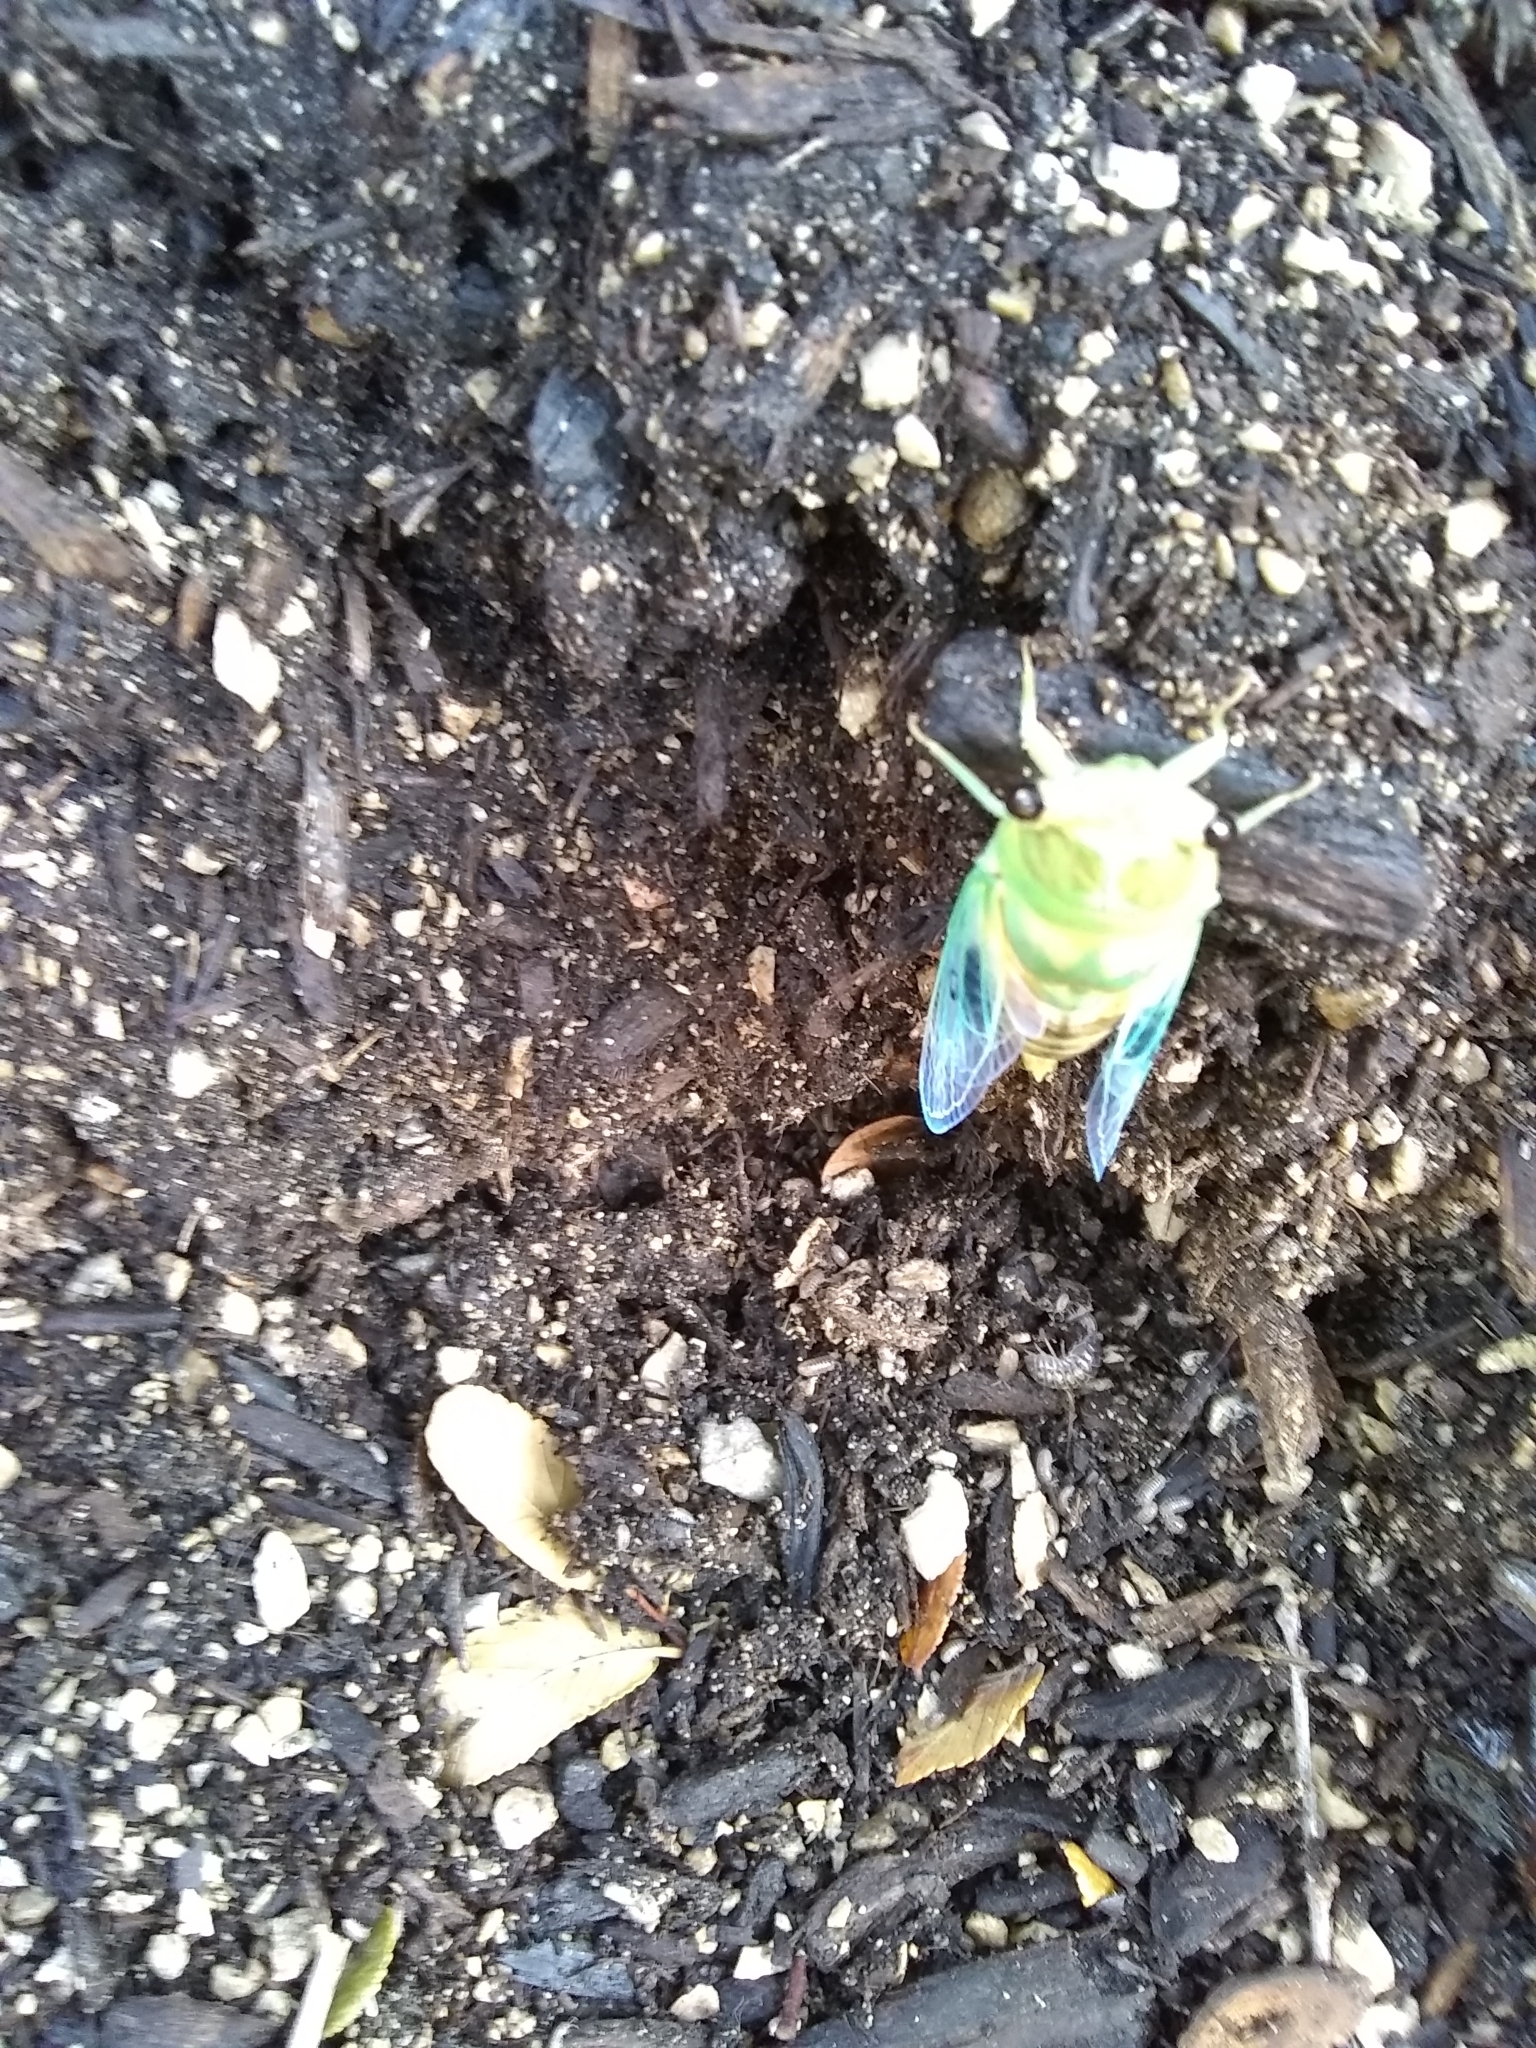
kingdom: Animalia
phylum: Arthropoda
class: Insecta
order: Hemiptera
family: Cicadidae
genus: Neotibicen
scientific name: Neotibicen superbus
